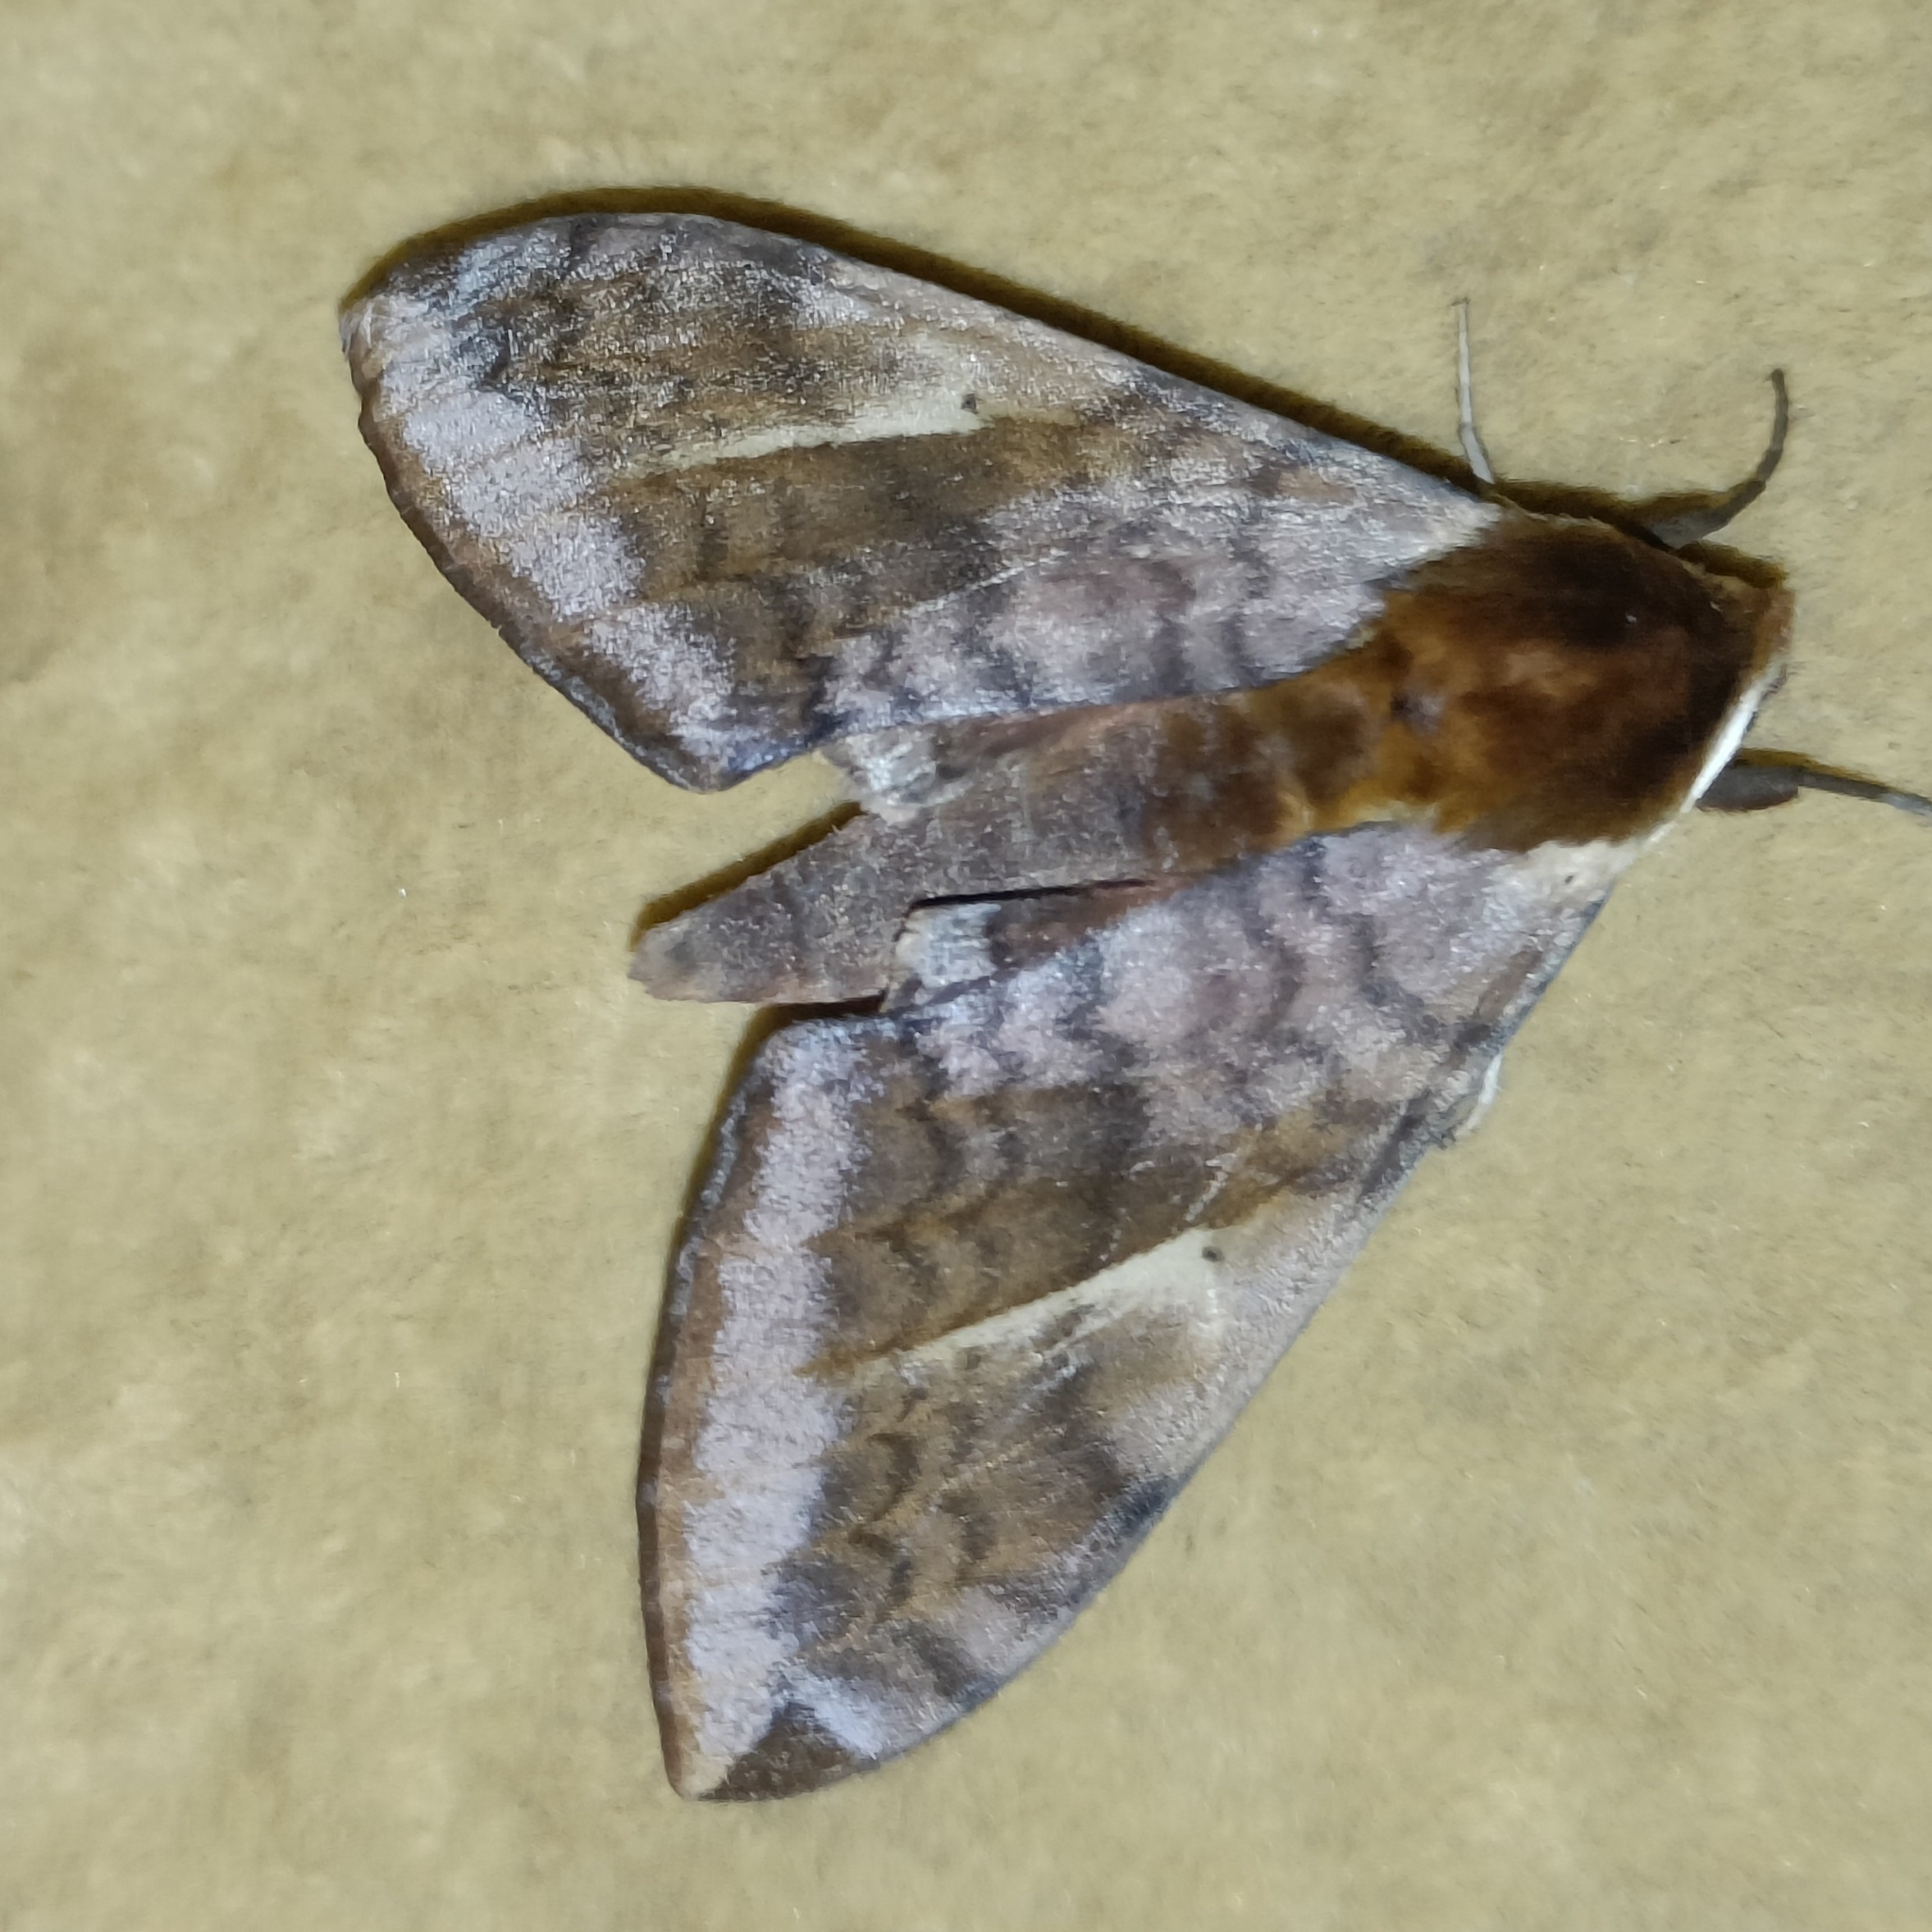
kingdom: Animalia
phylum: Arthropoda
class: Insecta
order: Lepidoptera
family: Sphingidae
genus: Clanidopsis
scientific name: Clanidopsis exusta
